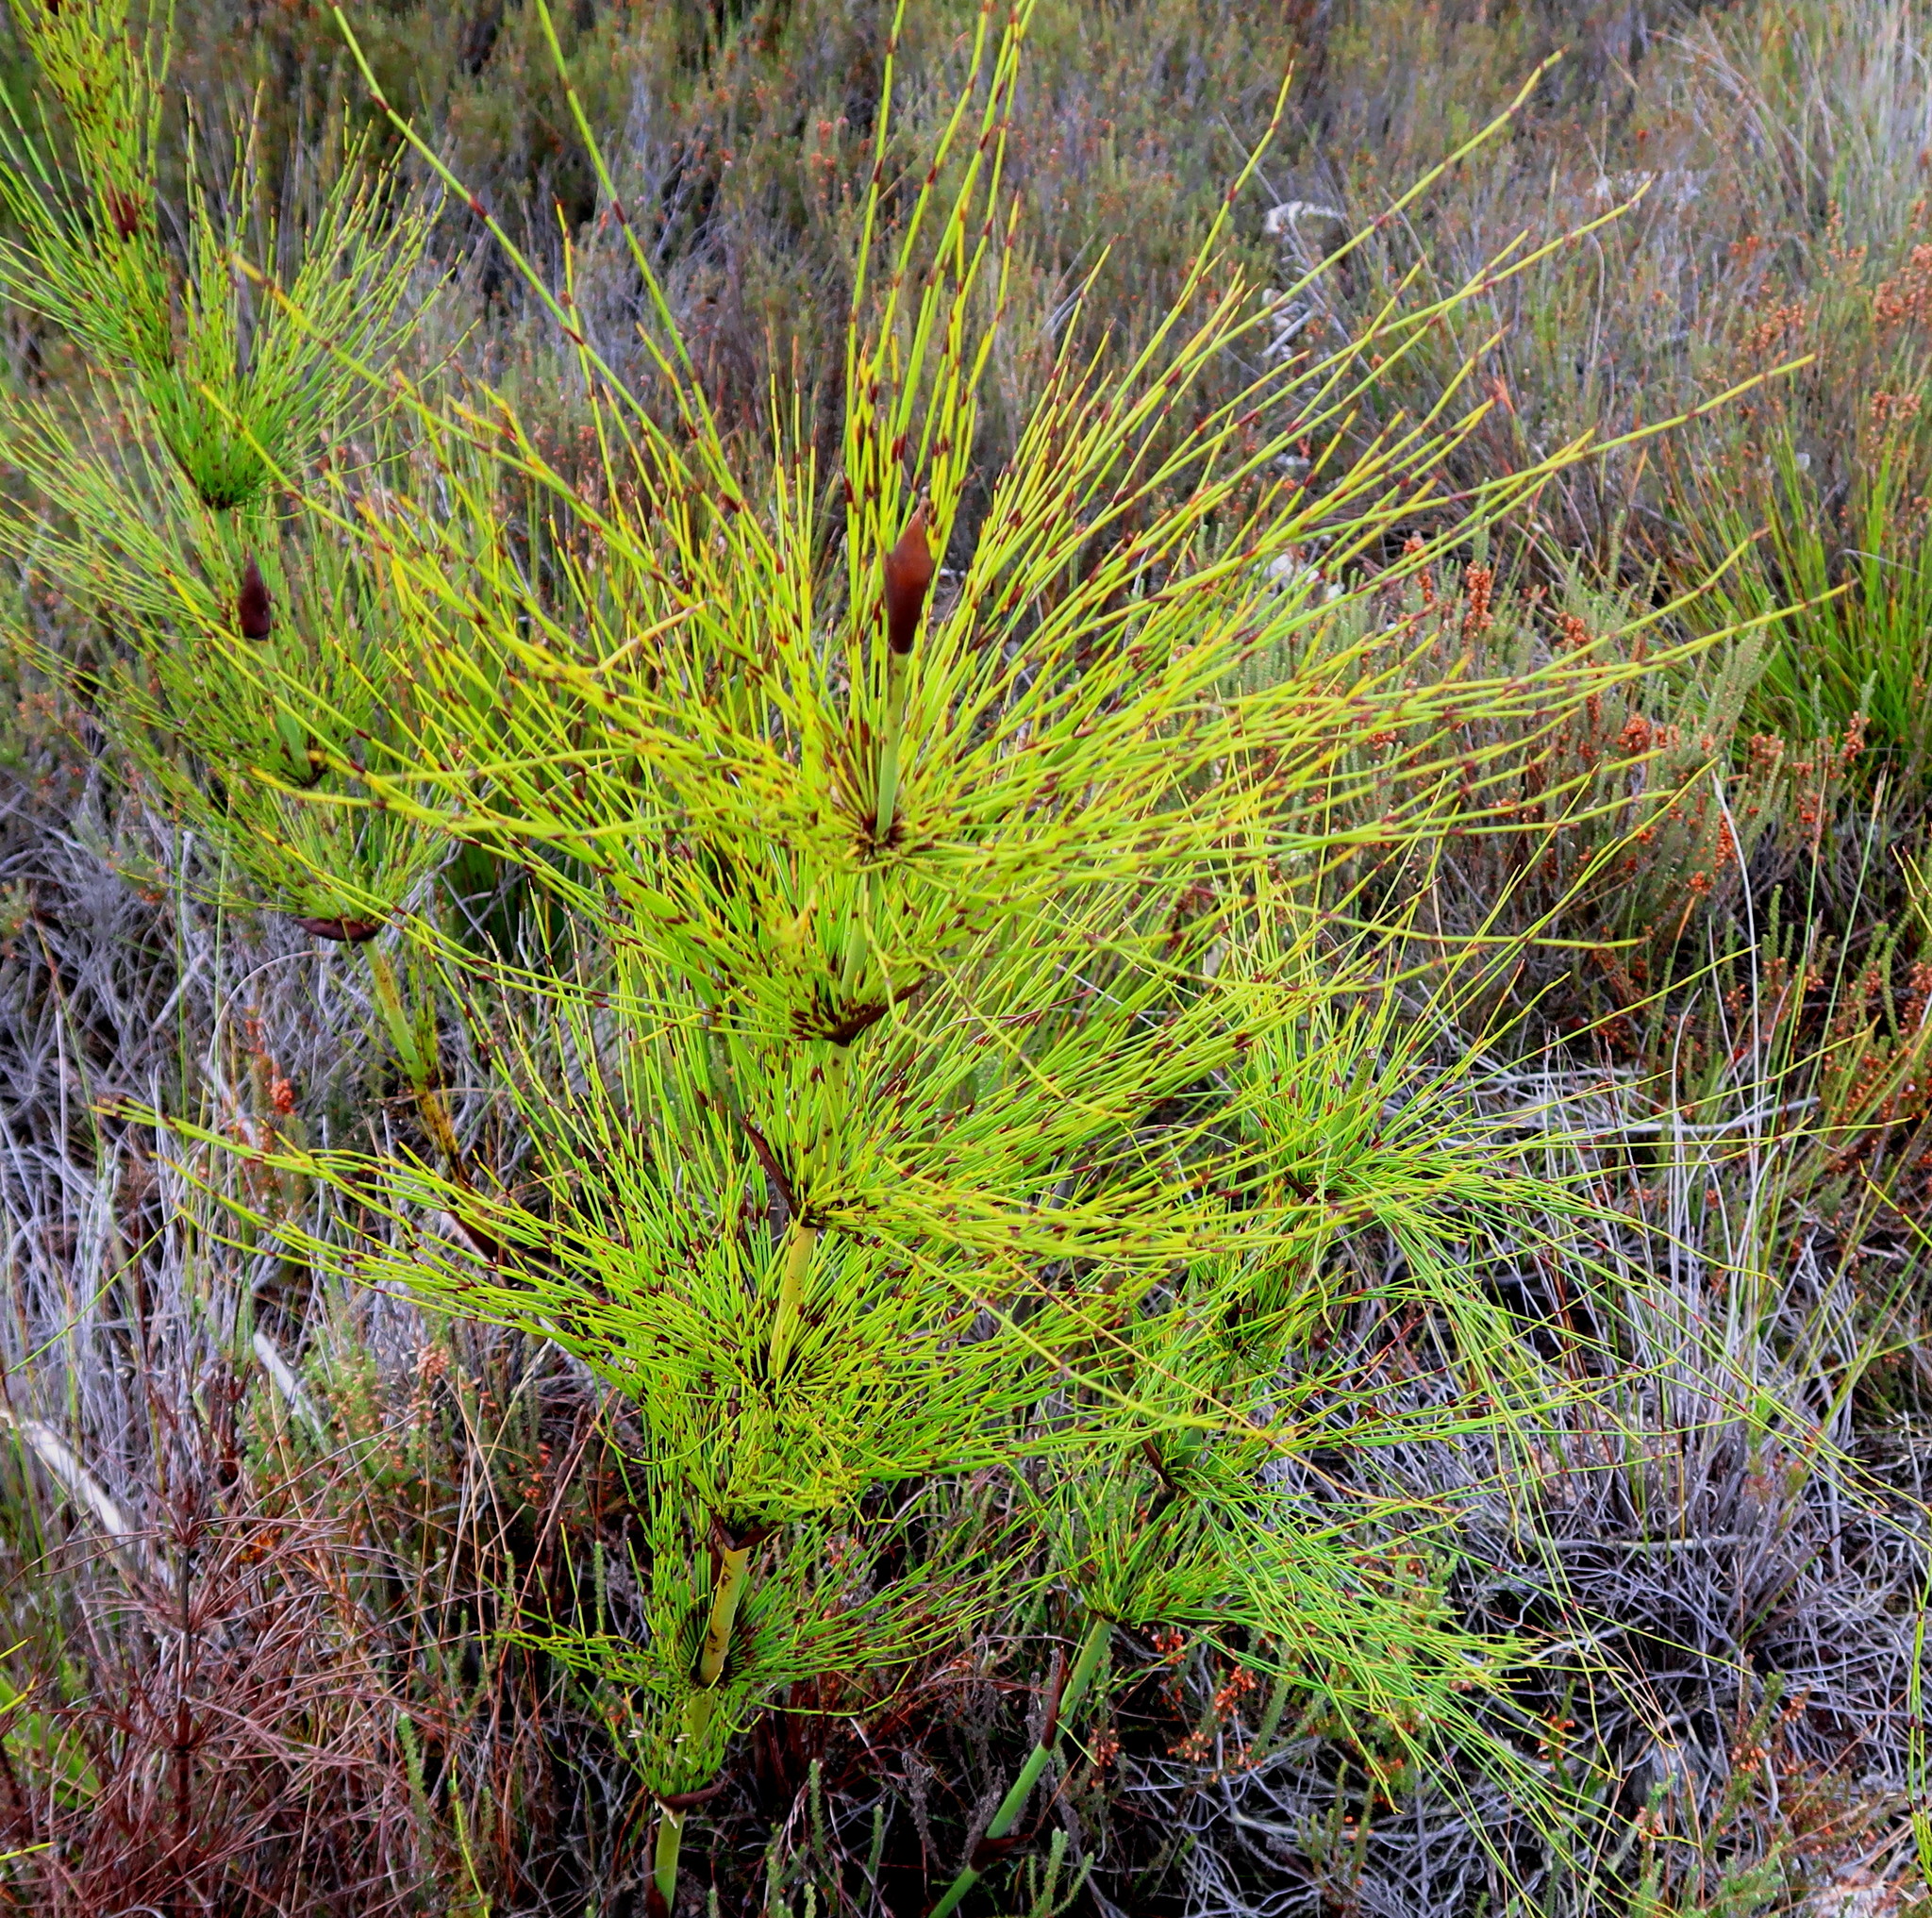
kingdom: Plantae
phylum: Tracheophyta
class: Liliopsida
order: Poales
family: Restionaceae
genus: Elegia
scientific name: Elegia capensis
